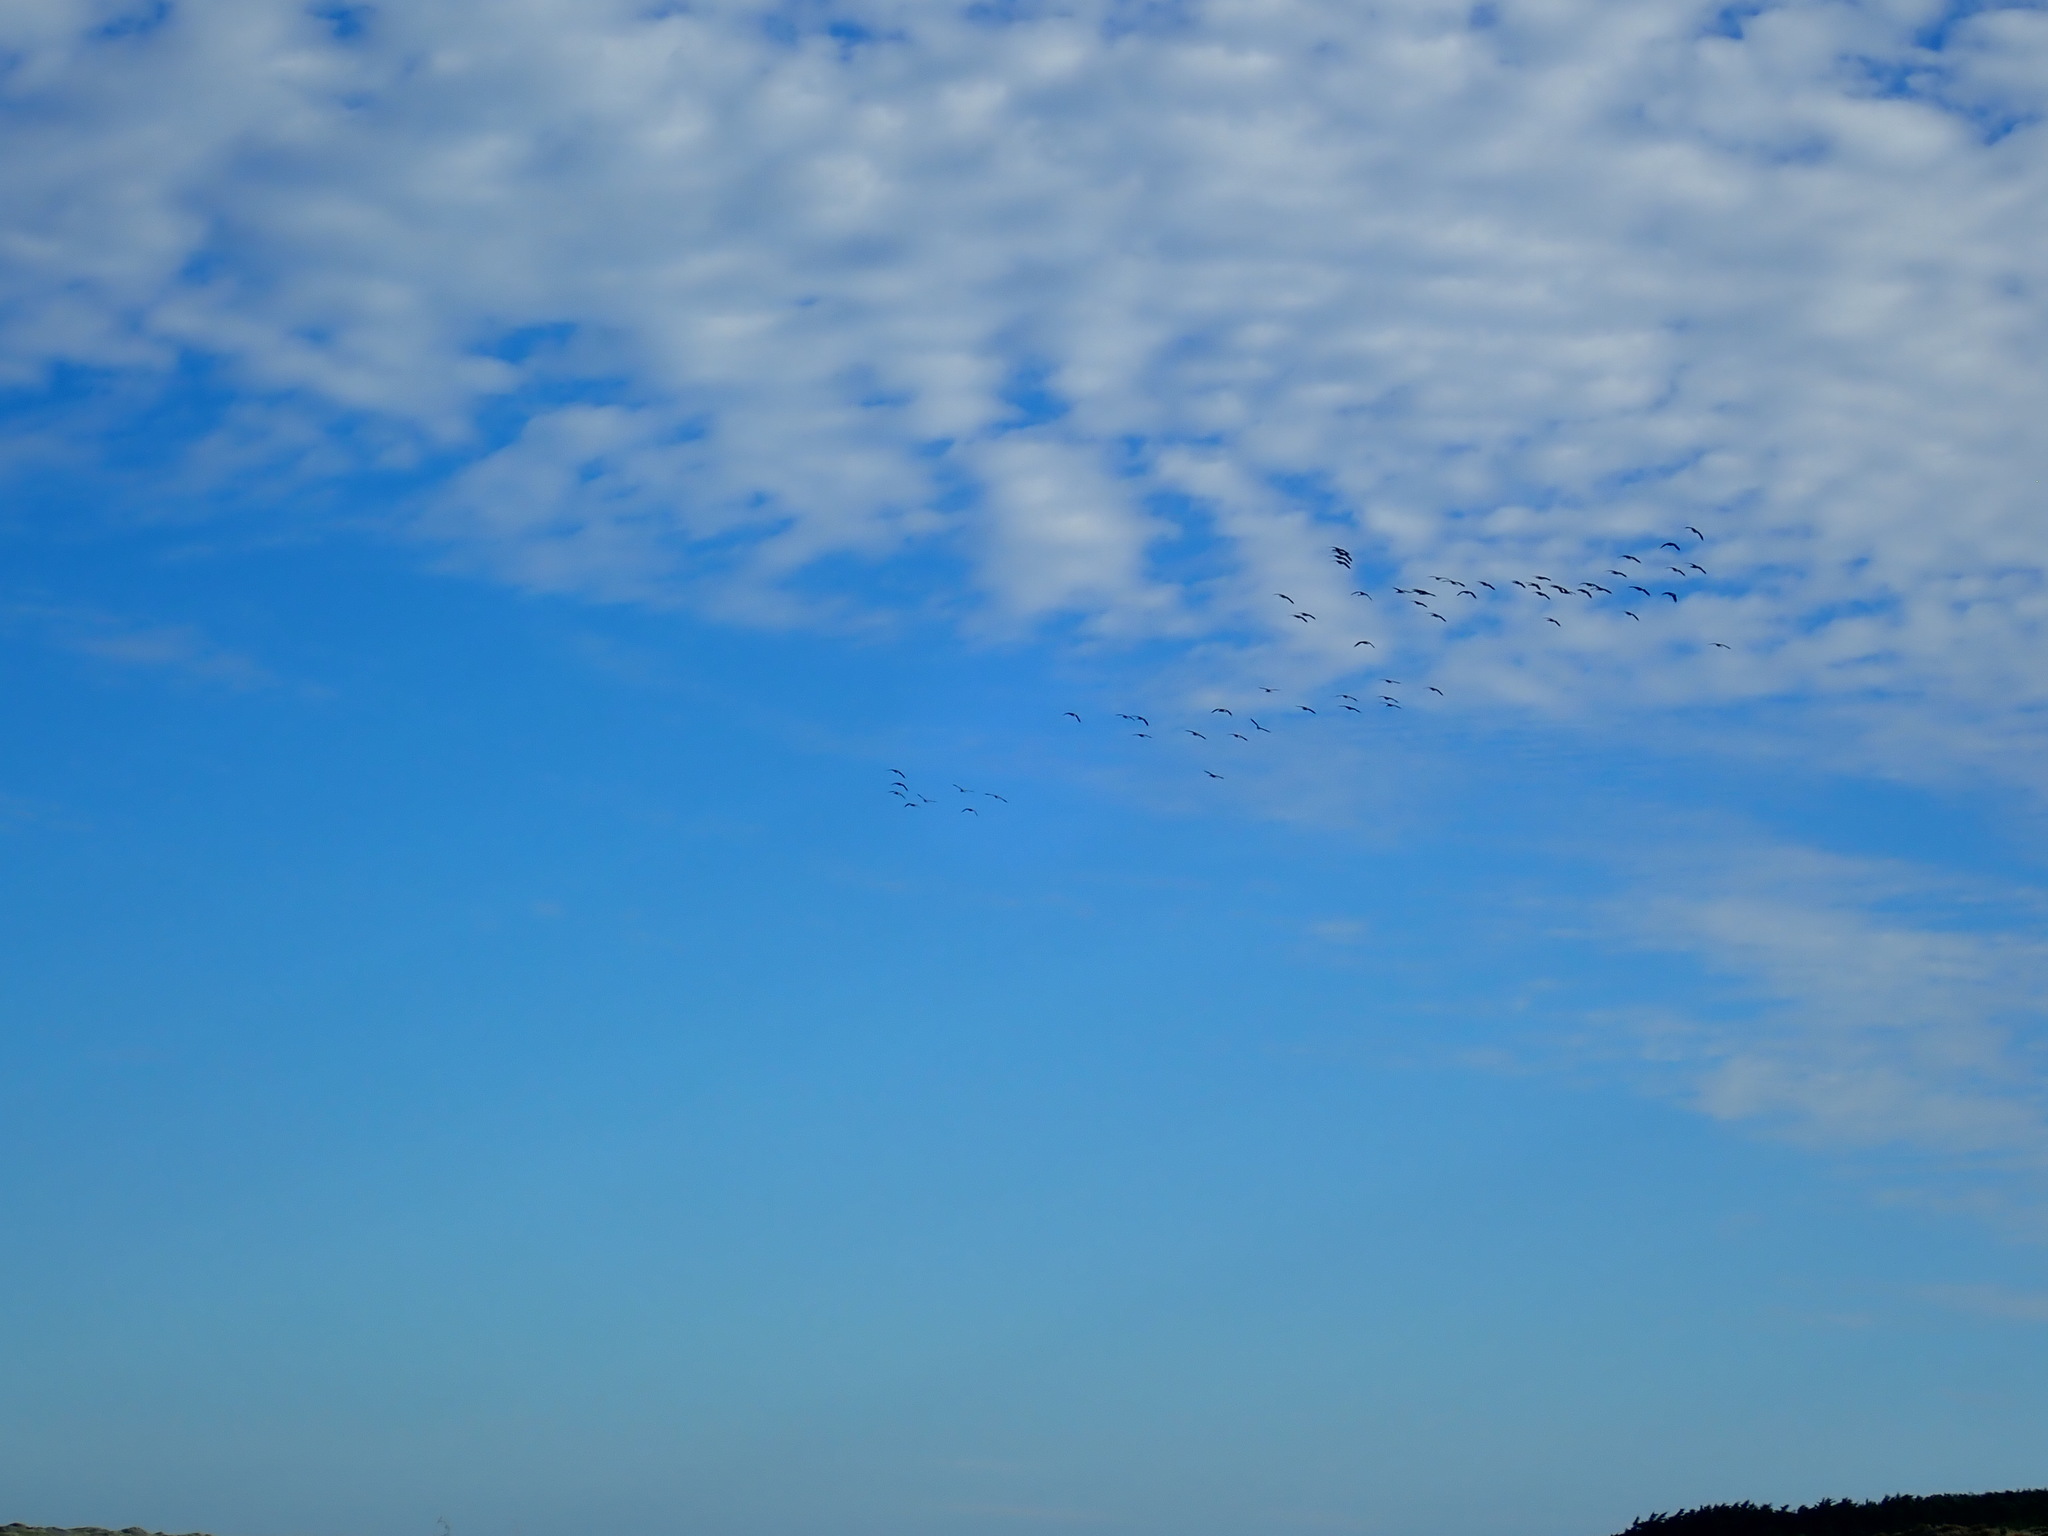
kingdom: Animalia
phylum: Chordata
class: Aves
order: Anseriformes
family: Anatidae
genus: Branta
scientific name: Branta canadensis
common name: Canada goose
